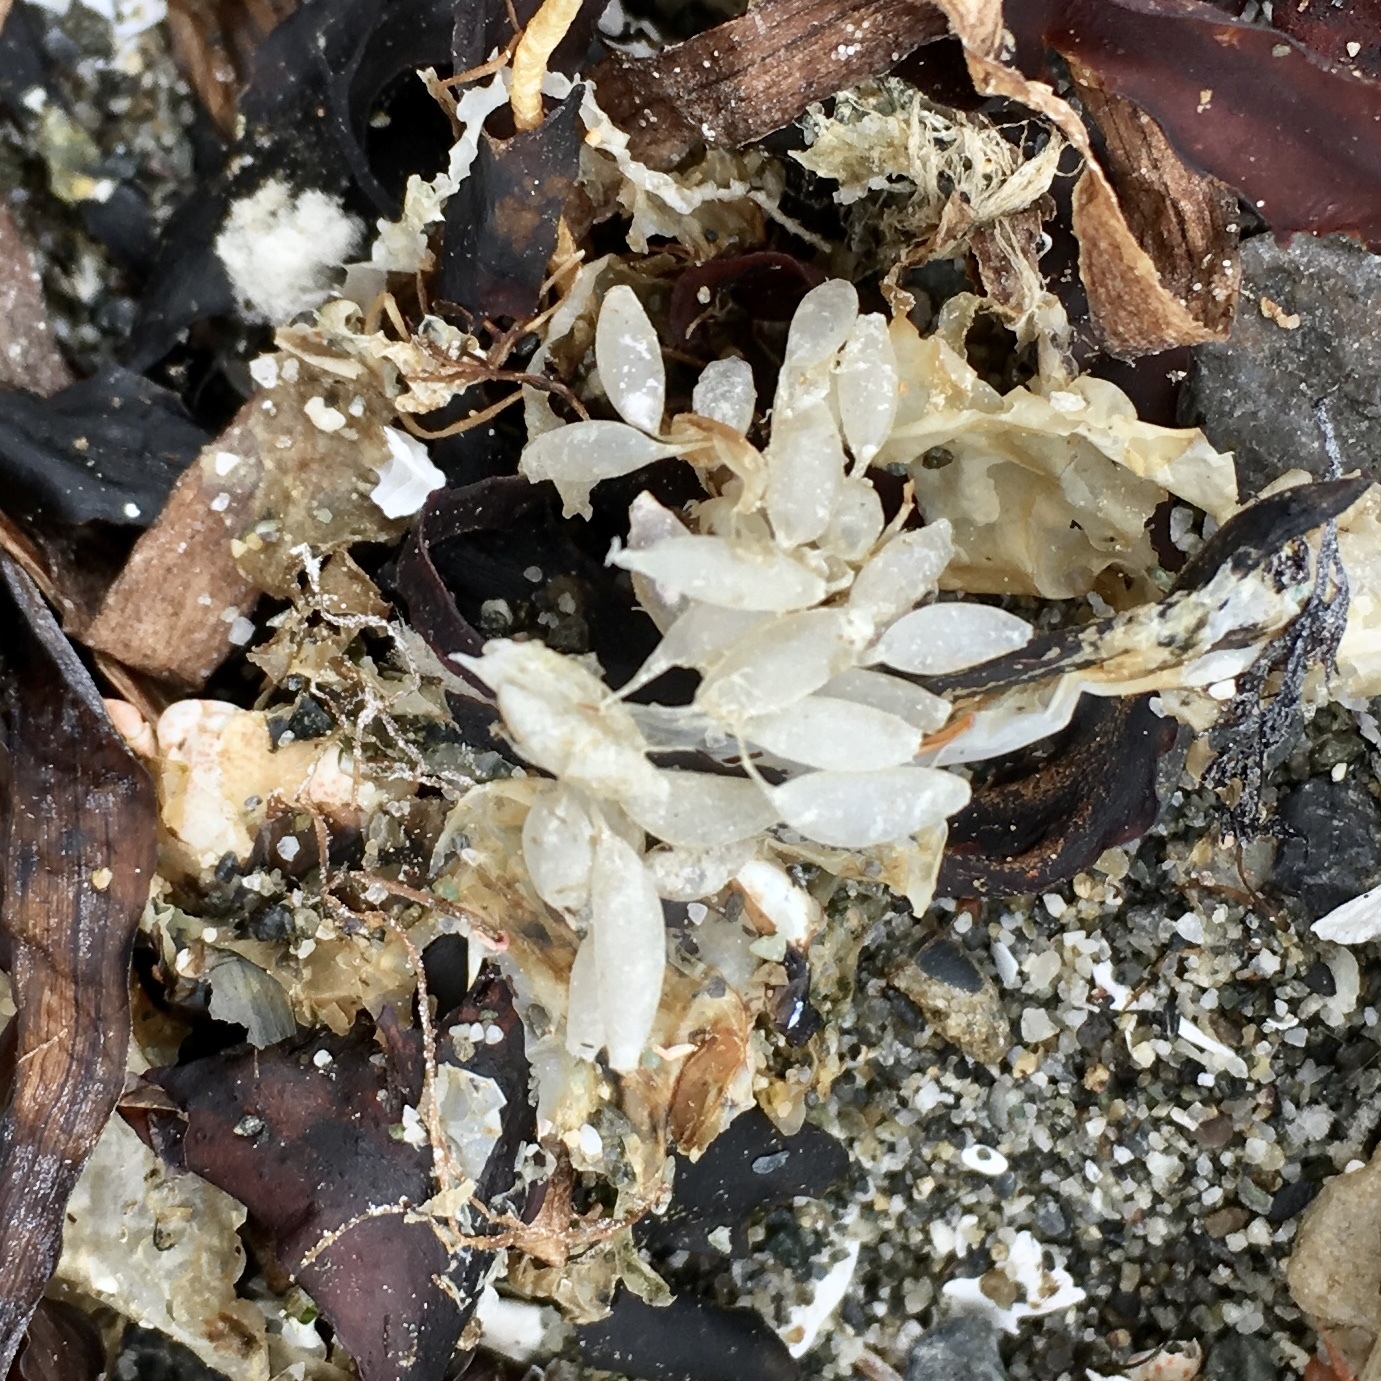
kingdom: Animalia
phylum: Mollusca
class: Gastropoda
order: Neogastropoda
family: Muricidae
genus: Nucella
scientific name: Nucella lamellosa
